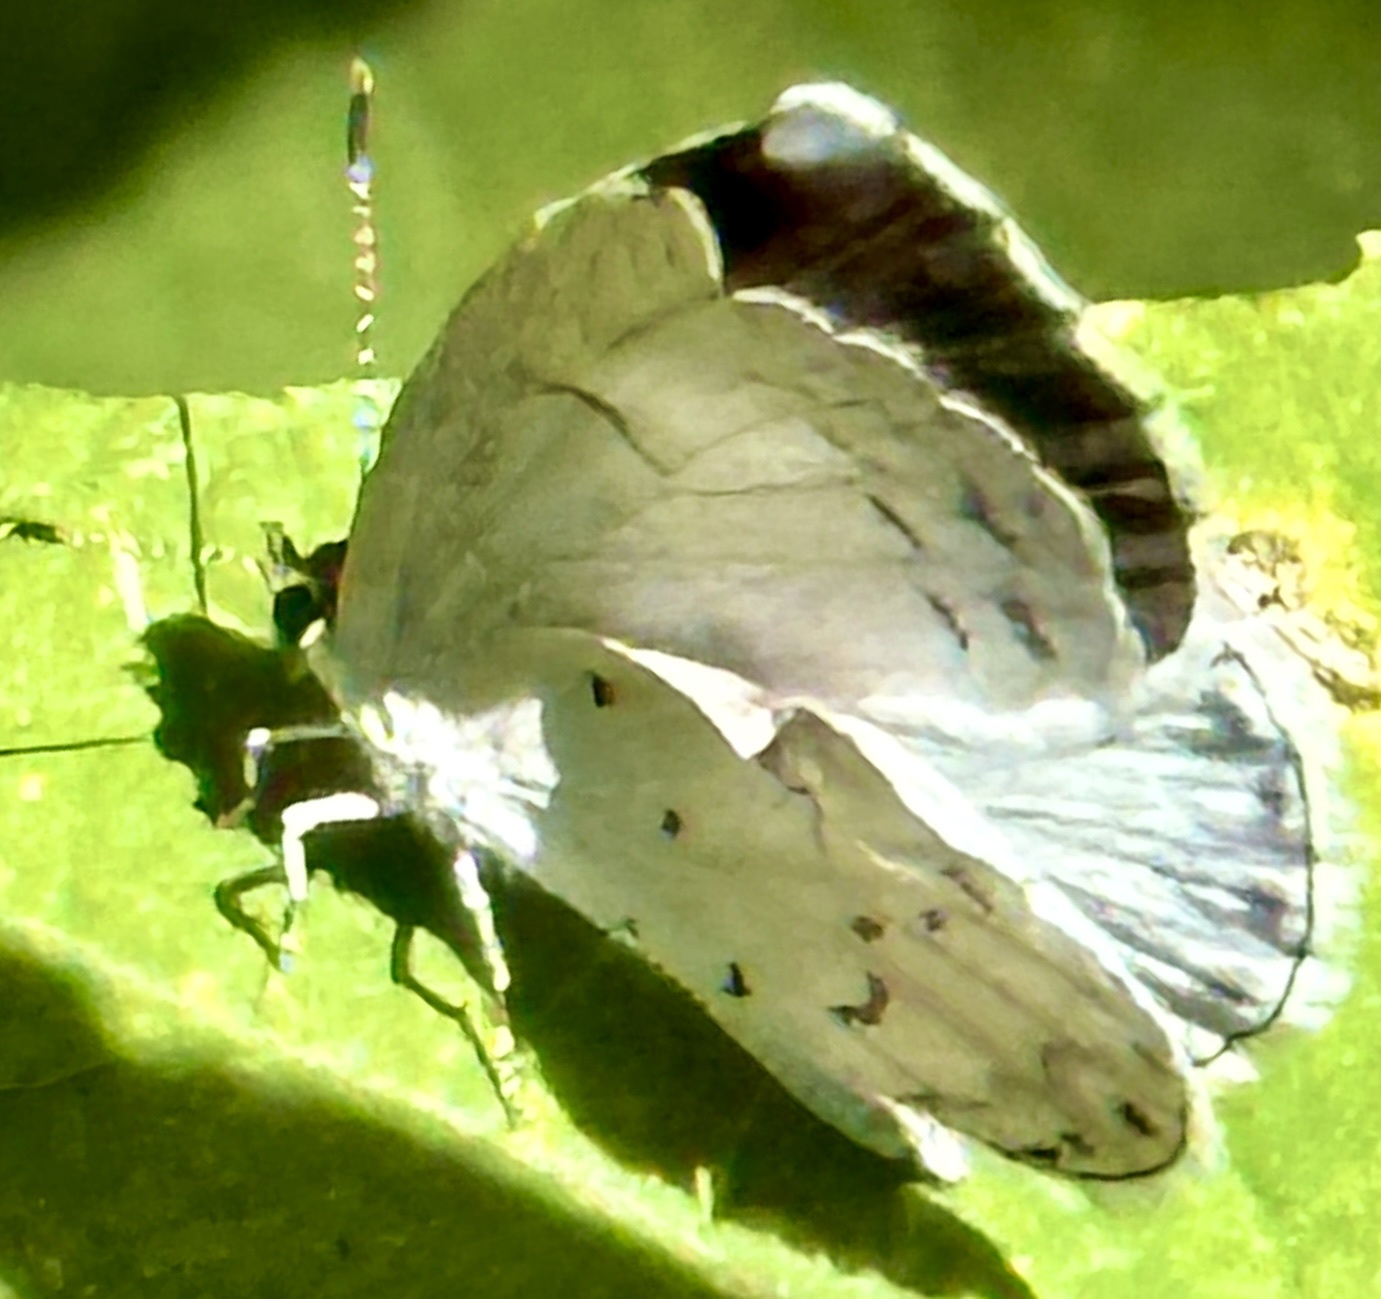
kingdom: Animalia
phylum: Arthropoda
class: Insecta
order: Lepidoptera
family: Lycaenidae
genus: Cyaniris
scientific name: Cyaniris neglecta
